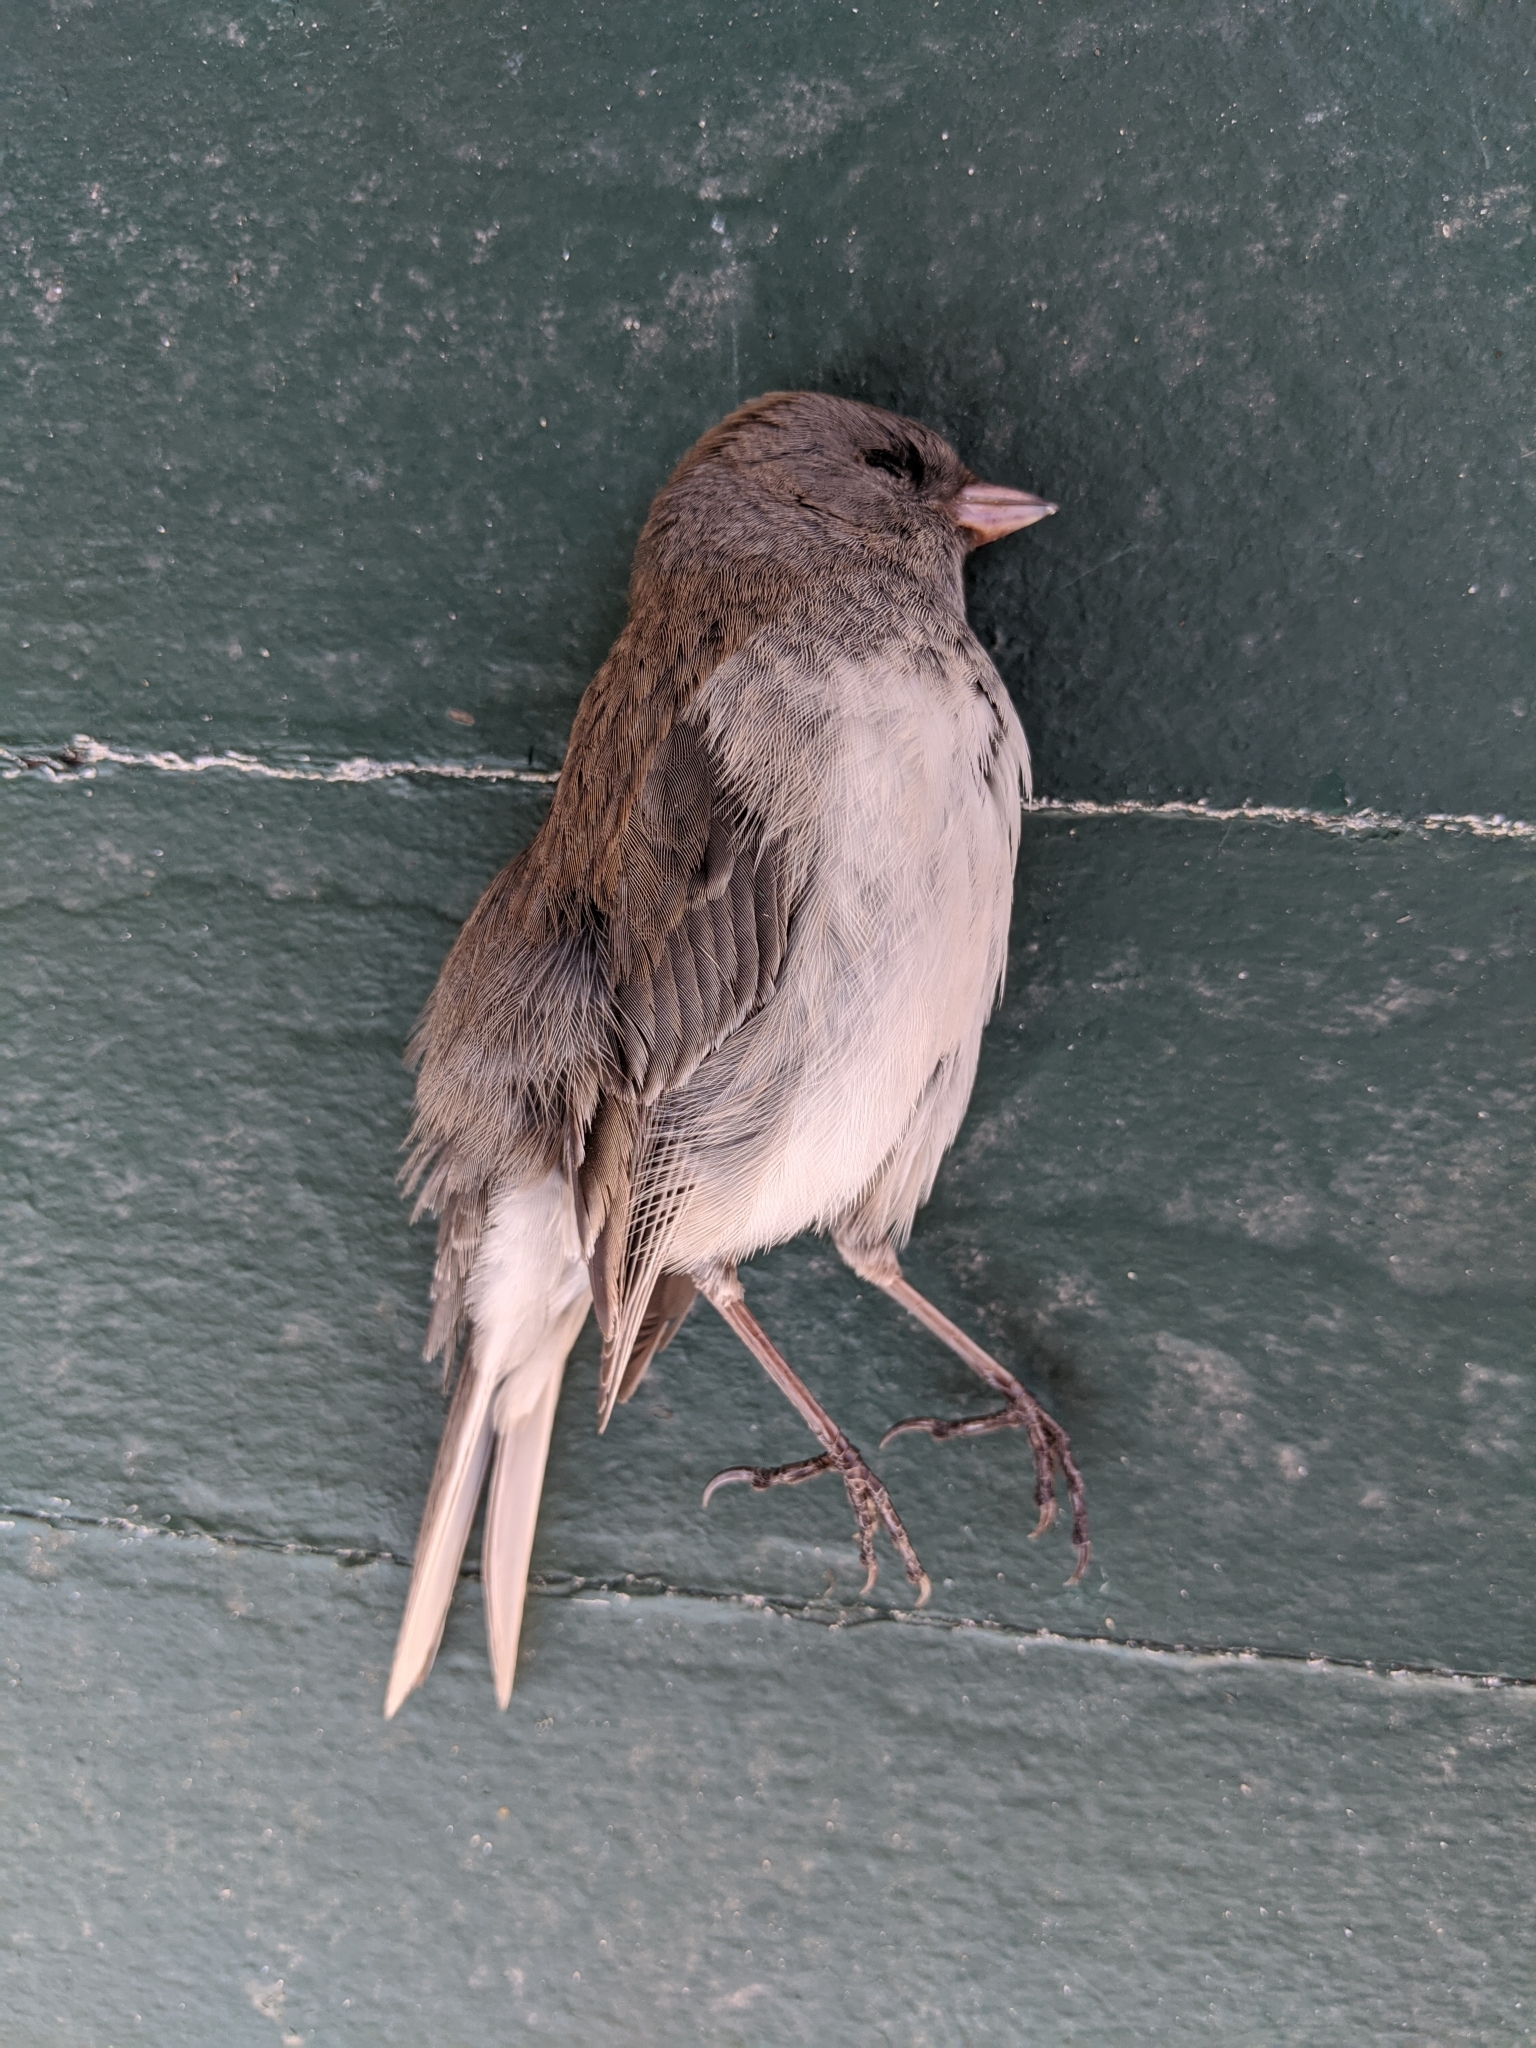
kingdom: Animalia
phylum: Chordata
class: Aves
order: Passeriformes
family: Passerellidae
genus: Junco
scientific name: Junco hyemalis
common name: Dark-eyed junco
